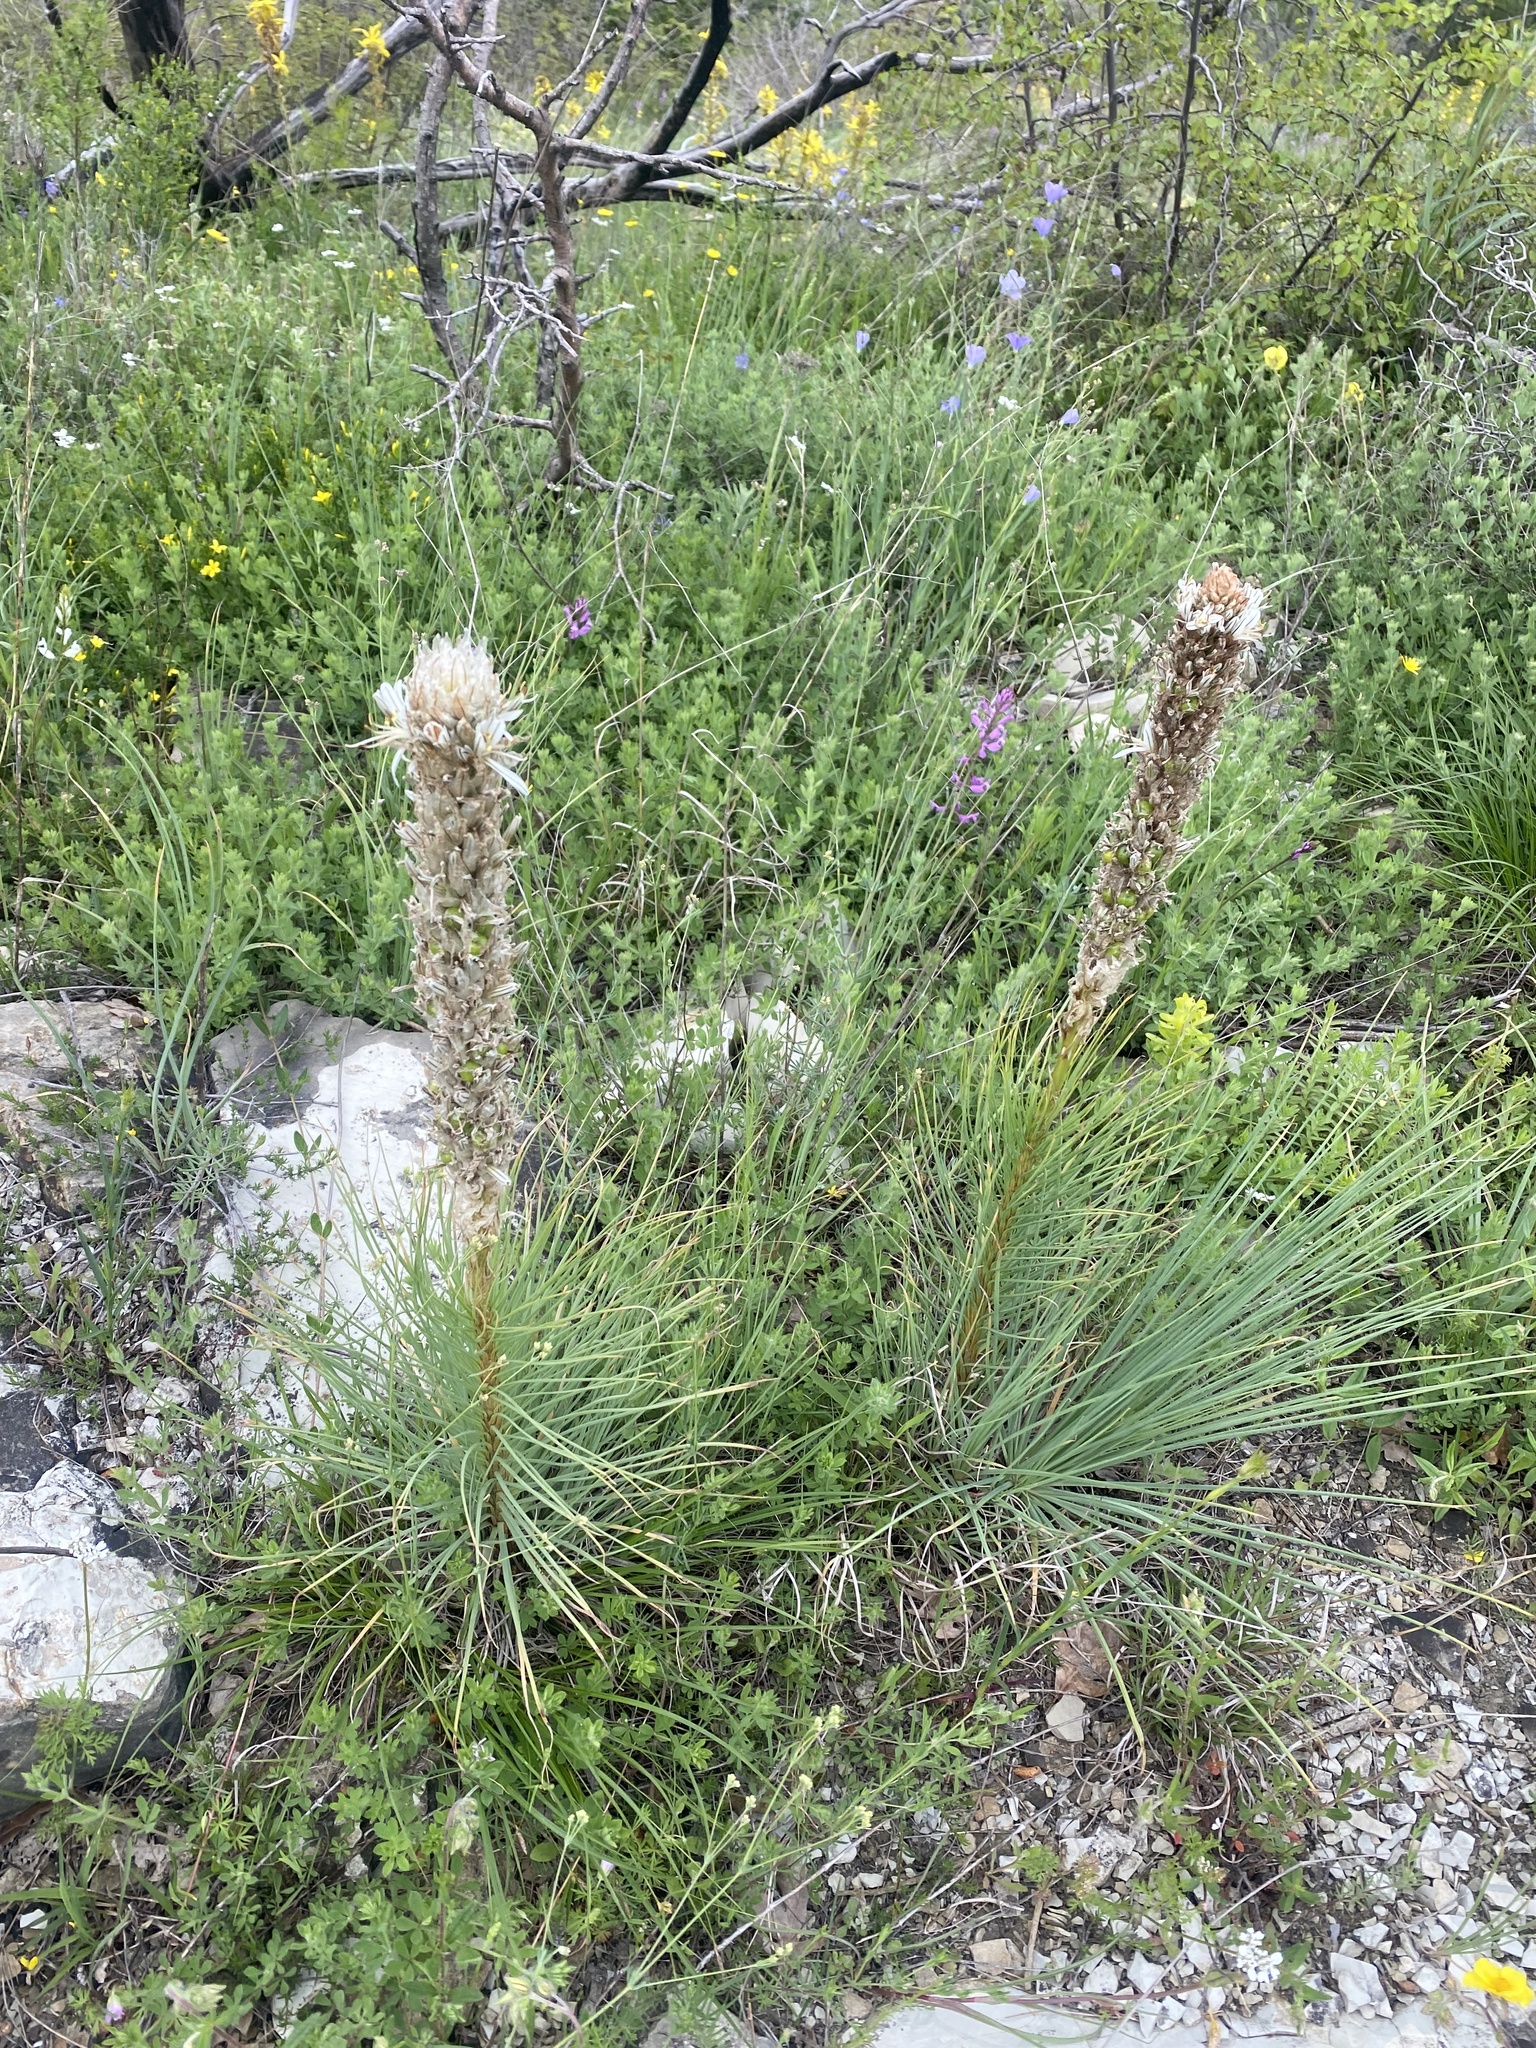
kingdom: Plantae
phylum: Tracheophyta
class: Liliopsida
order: Asparagales
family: Asphodelaceae
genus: Asphodeline
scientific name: Asphodeline taurica
